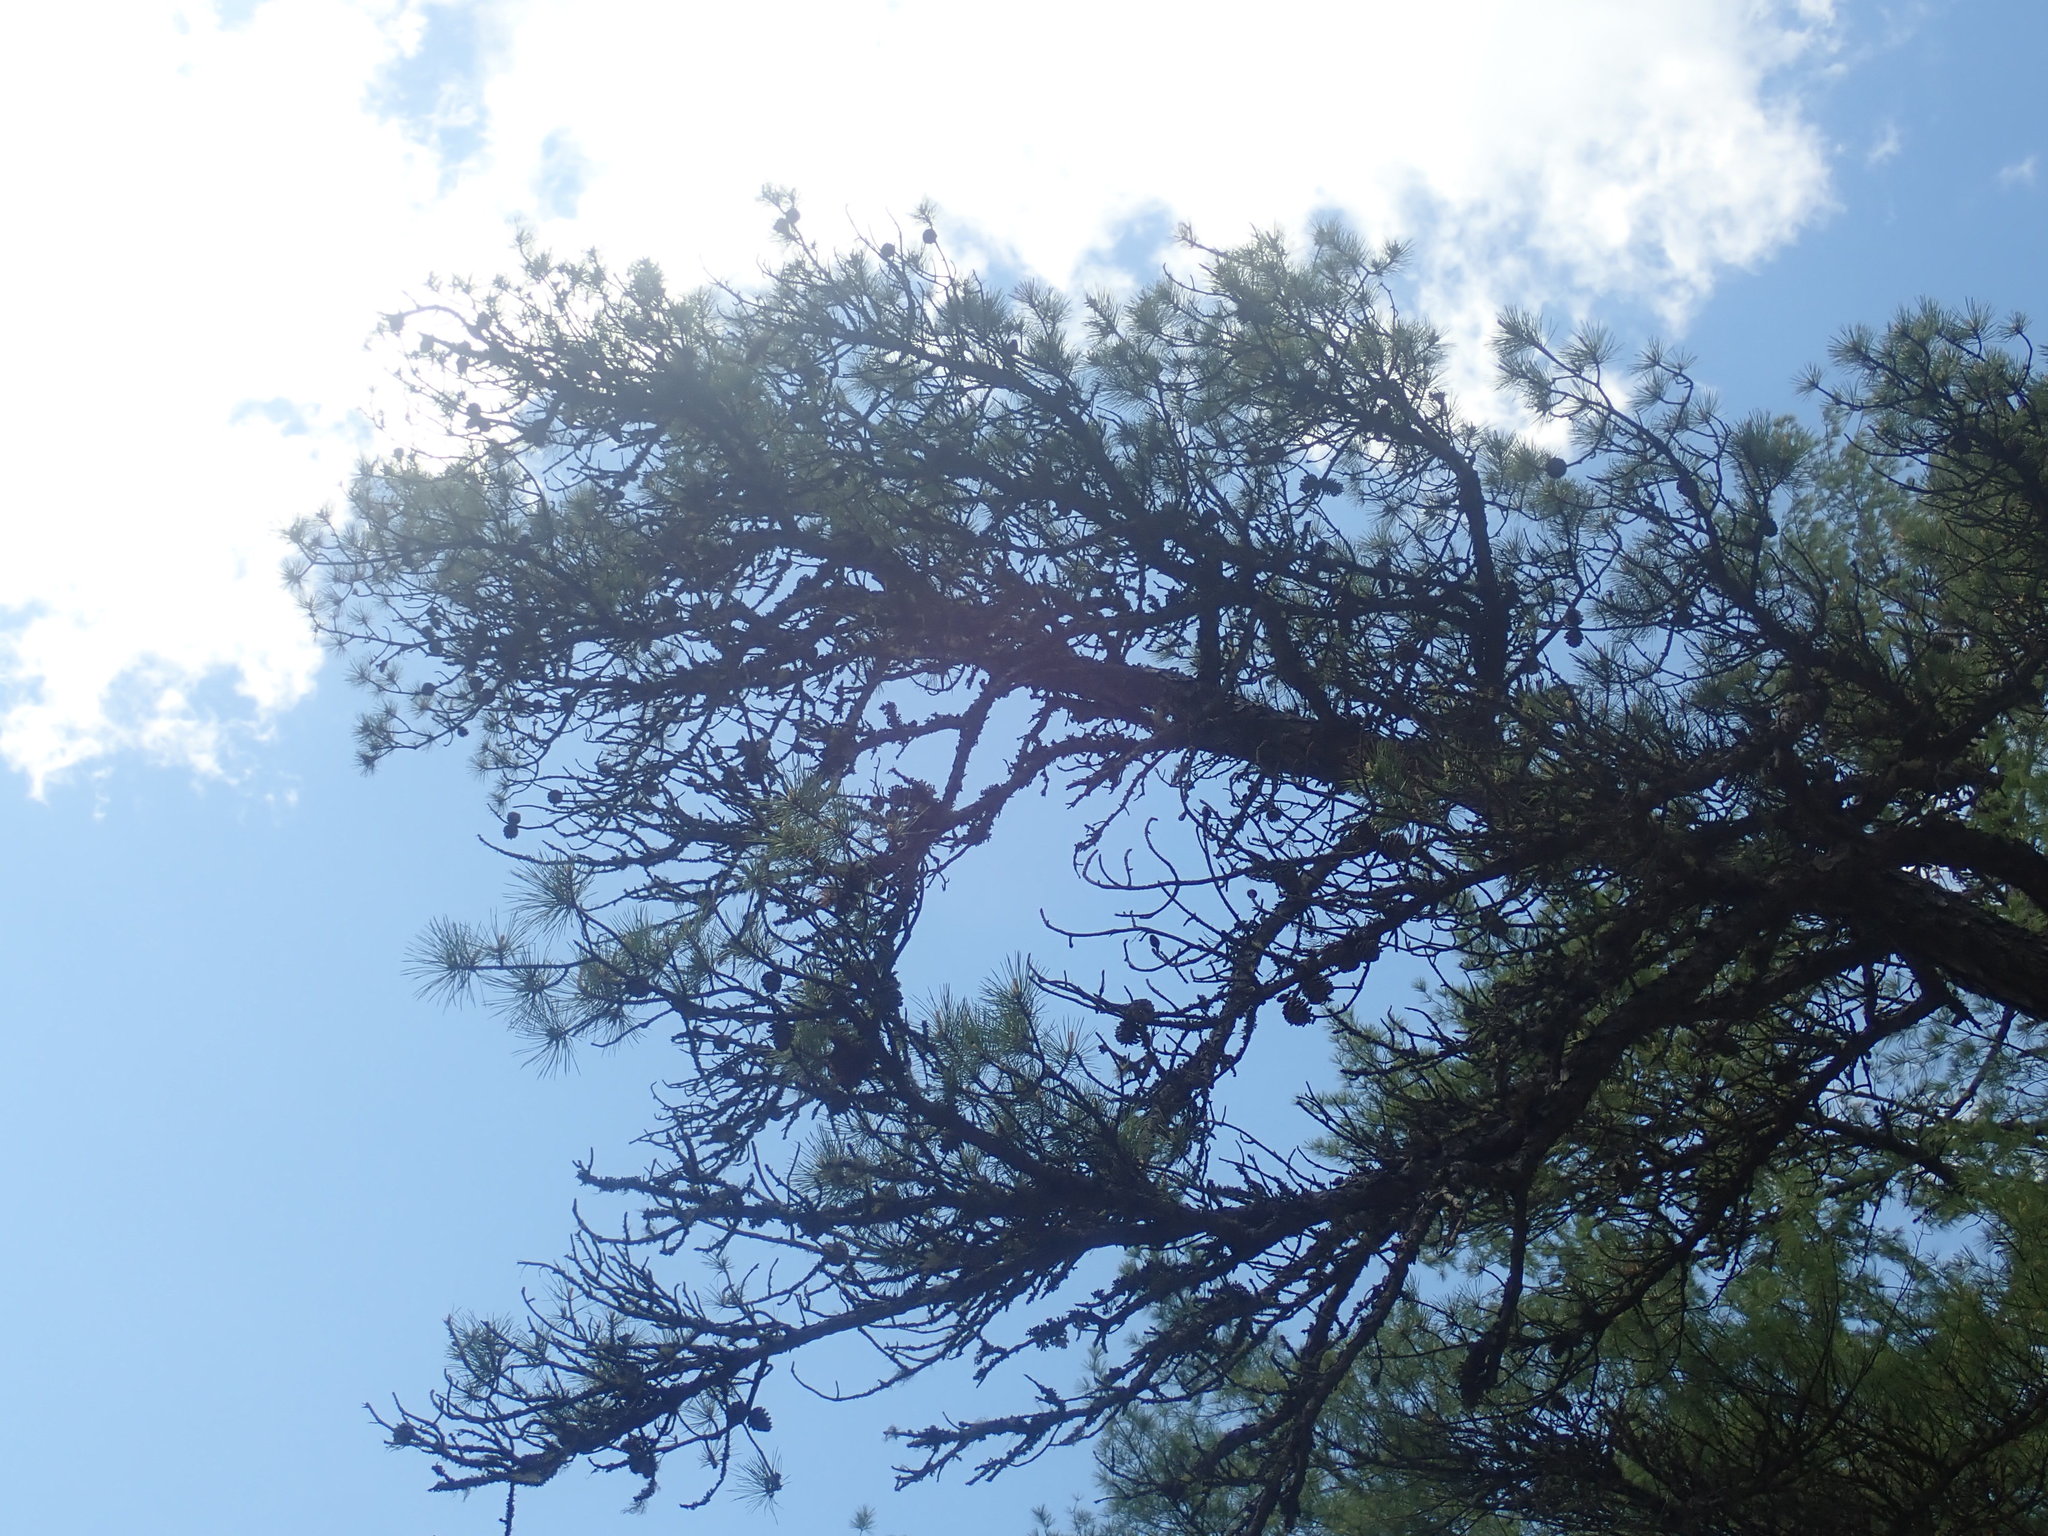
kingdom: Plantae
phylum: Tracheophyta
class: Pinopsida
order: Pinales
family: Pinaceae
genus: Pinus
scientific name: Pinus rigida
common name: Pitch pine
